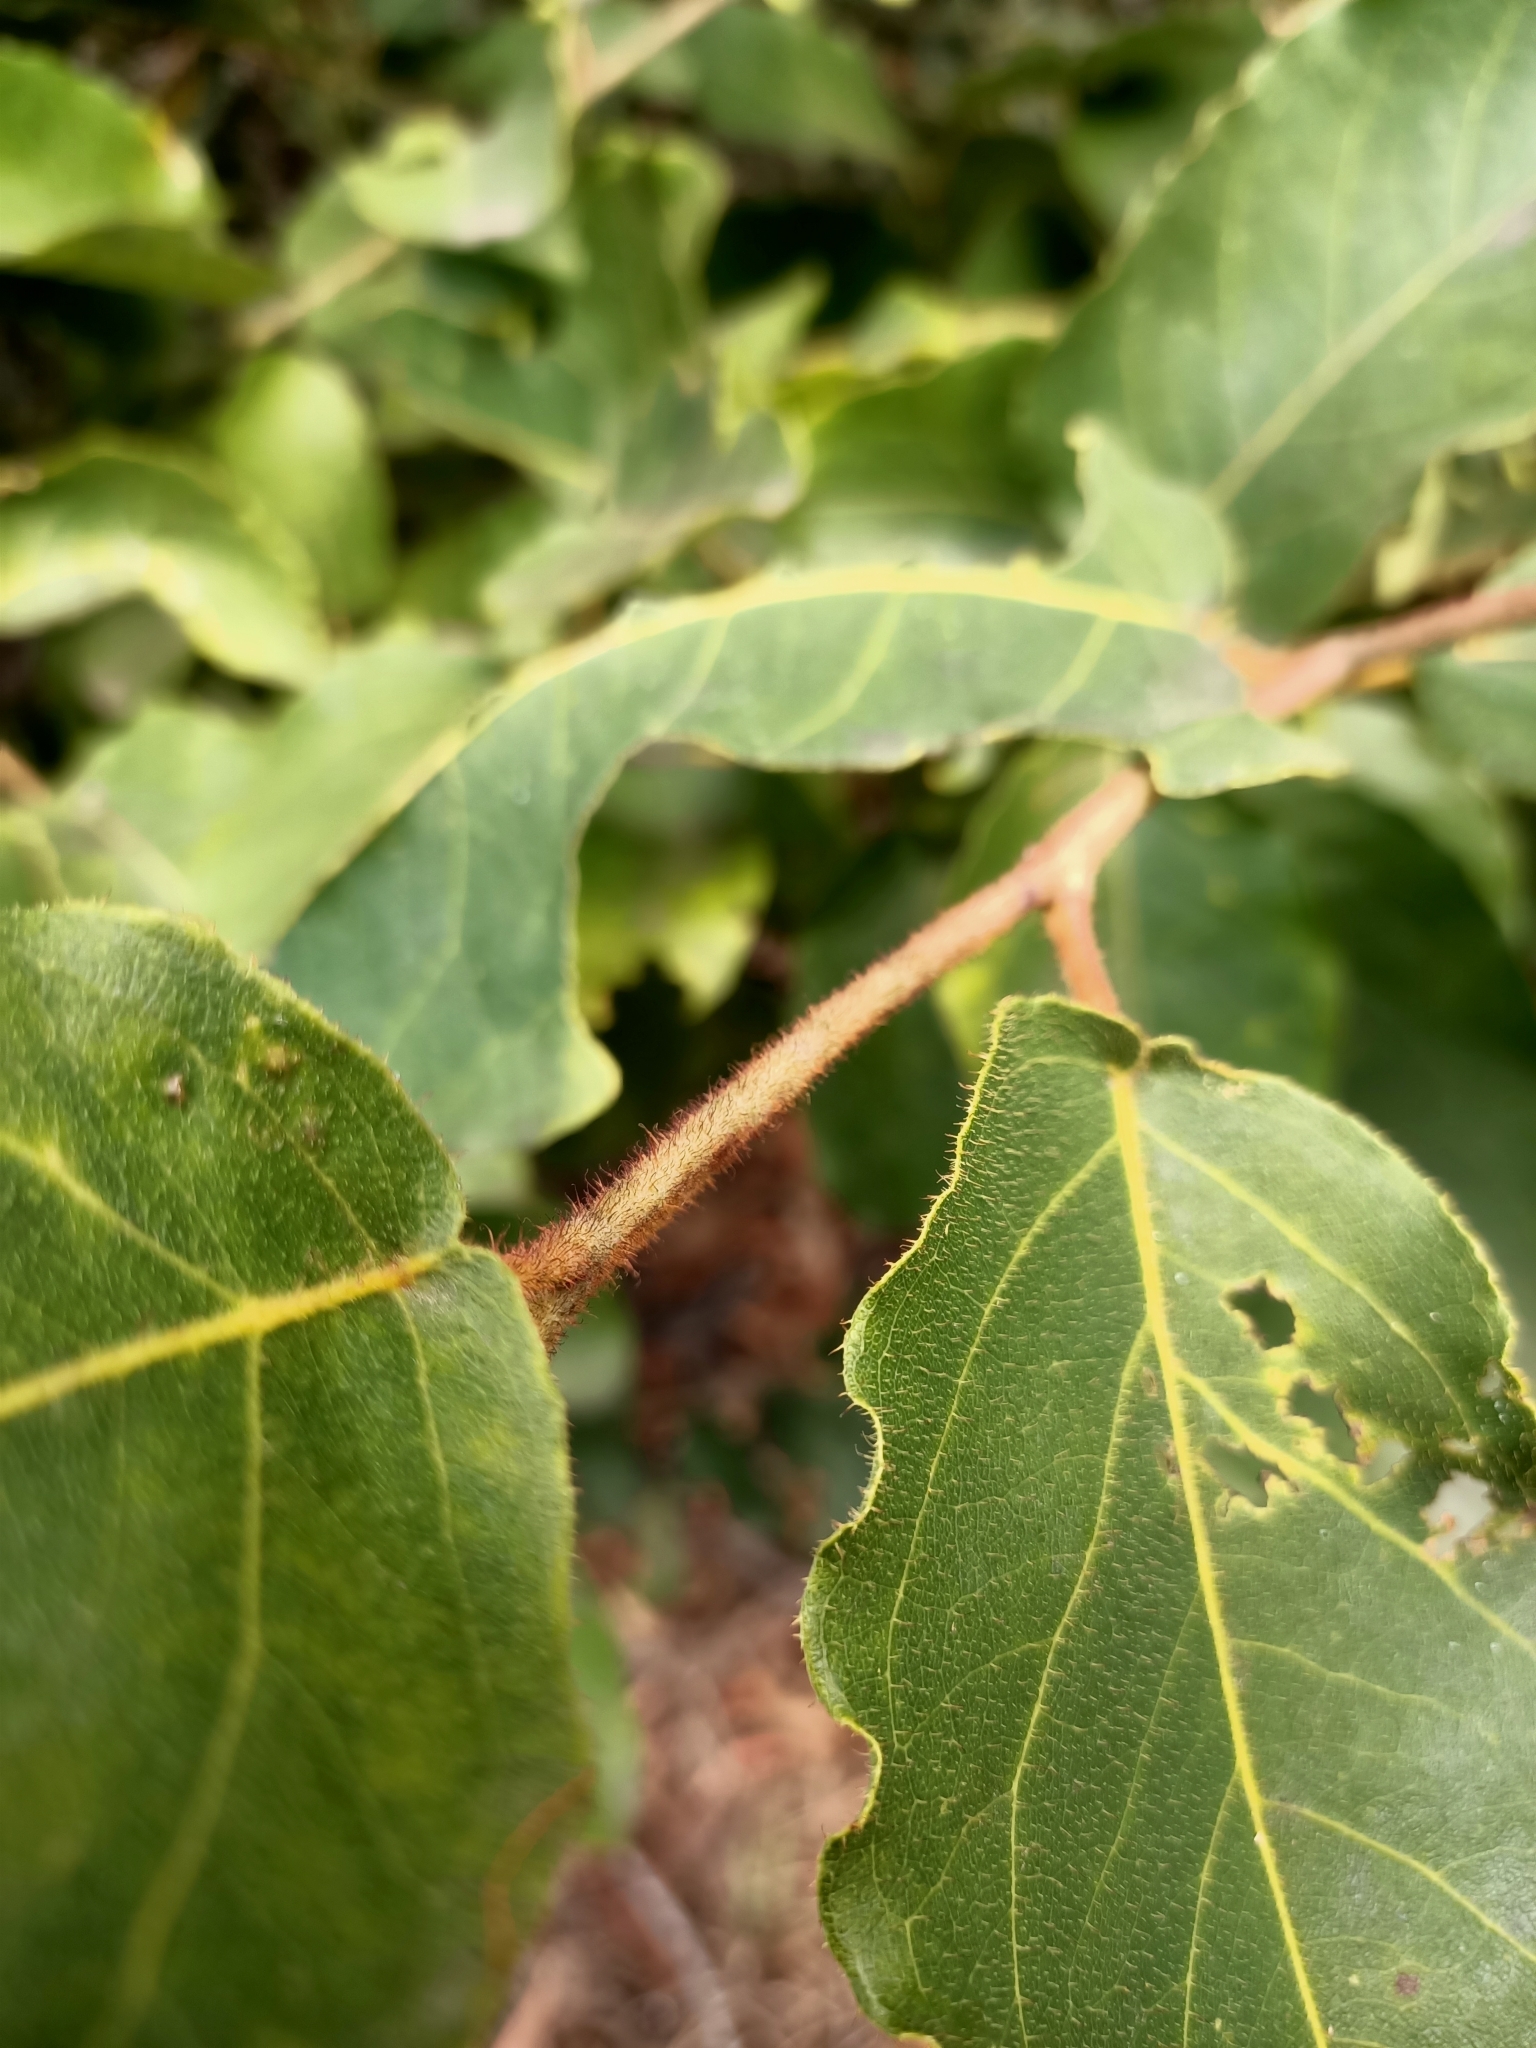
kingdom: Plantae
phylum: Tracheophyta
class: Magnoliopsida
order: Myrtales
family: Myrtaceae
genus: Corymbia
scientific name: Corymbia torelliana
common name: Cadaghi
